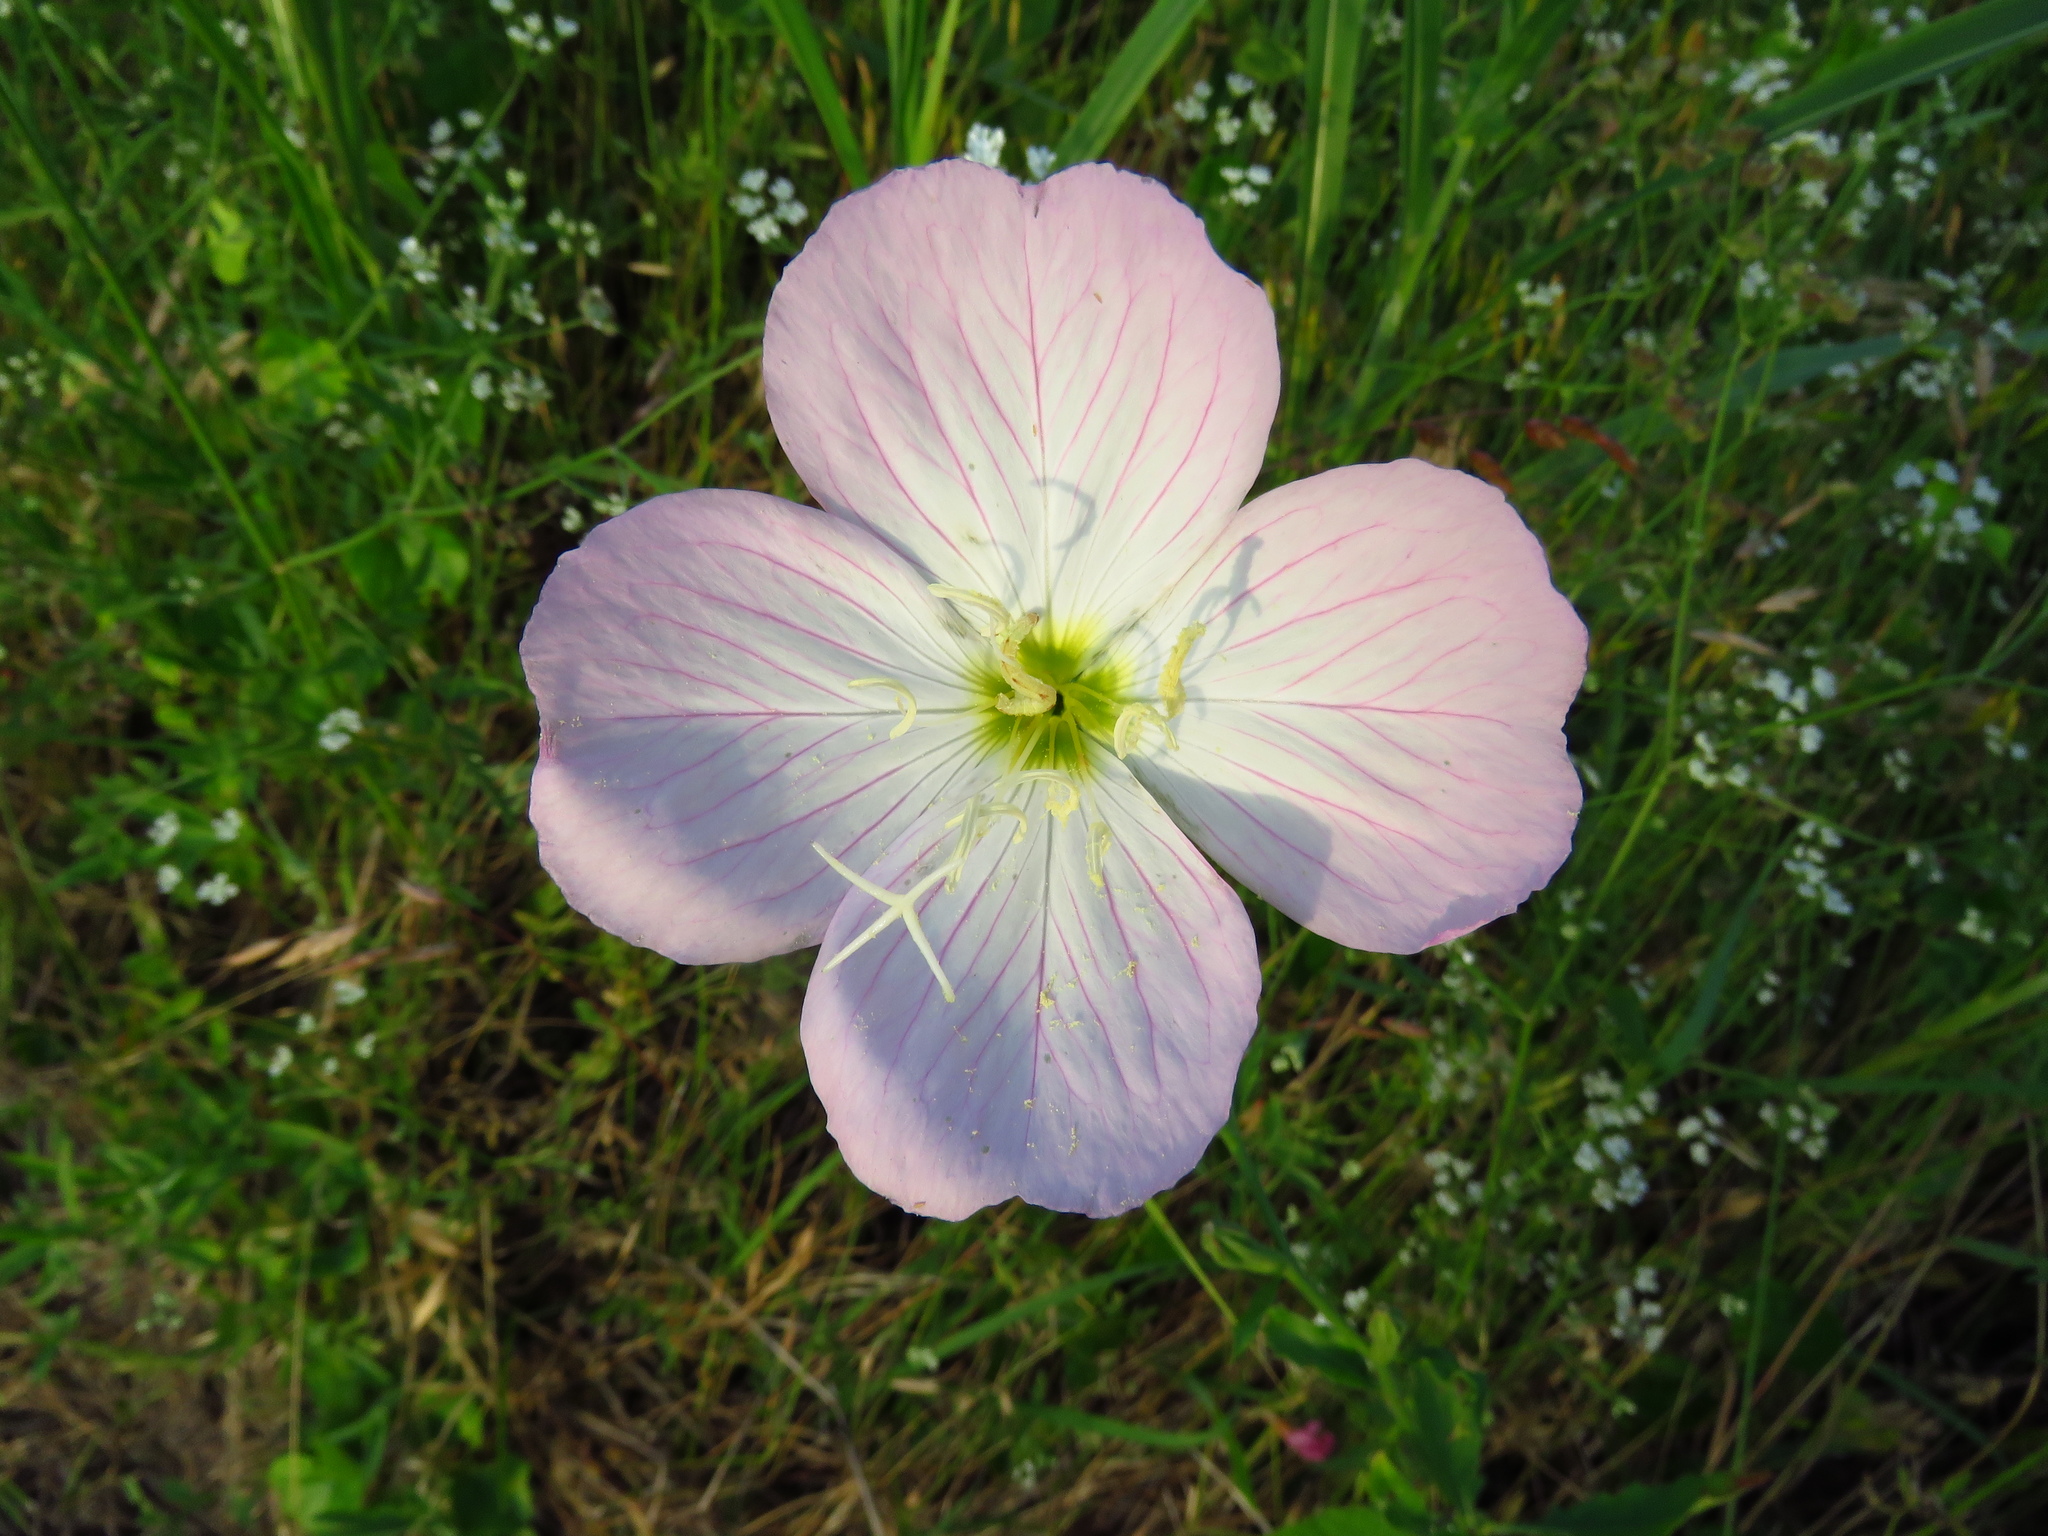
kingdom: Plantae
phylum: Tracheophyta
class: Magnoliopsida
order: Myrtales
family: Onagraceae
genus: Oenothera
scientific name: Oenothera speciosa
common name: White evening-primrose
